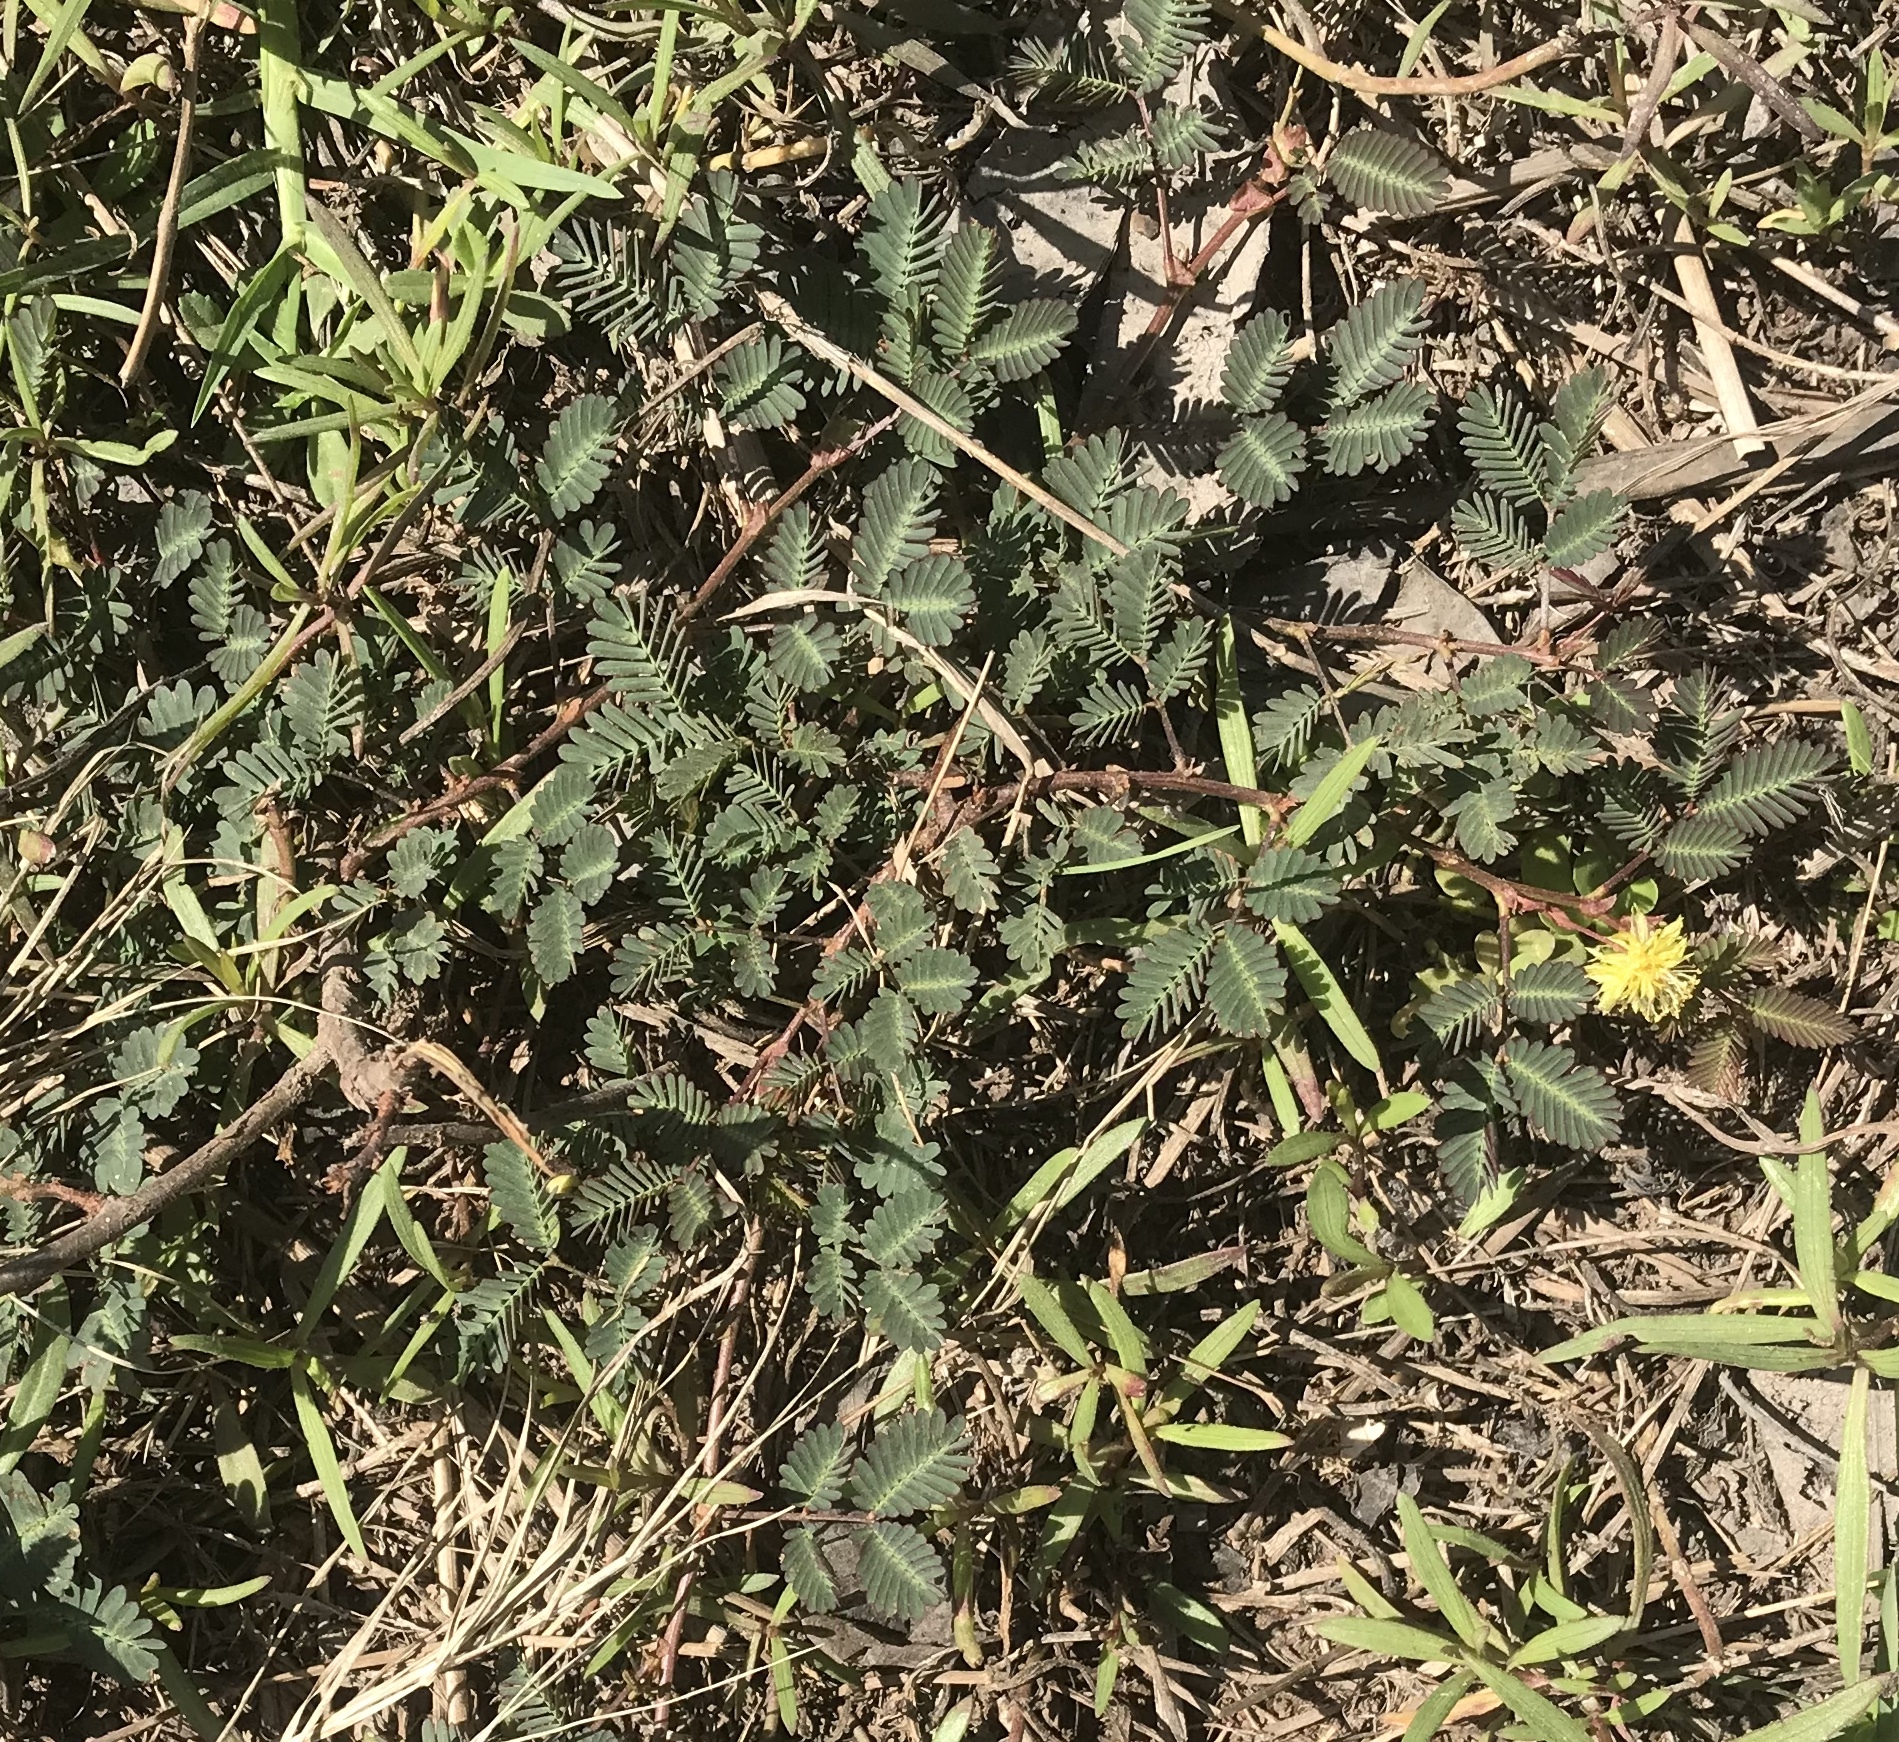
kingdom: Plantae
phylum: Tracheophyta
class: Magnoliopsida
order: Fabales
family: Fabaceae
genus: Neptunia
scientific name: Neptunia plena
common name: Dead and awake
